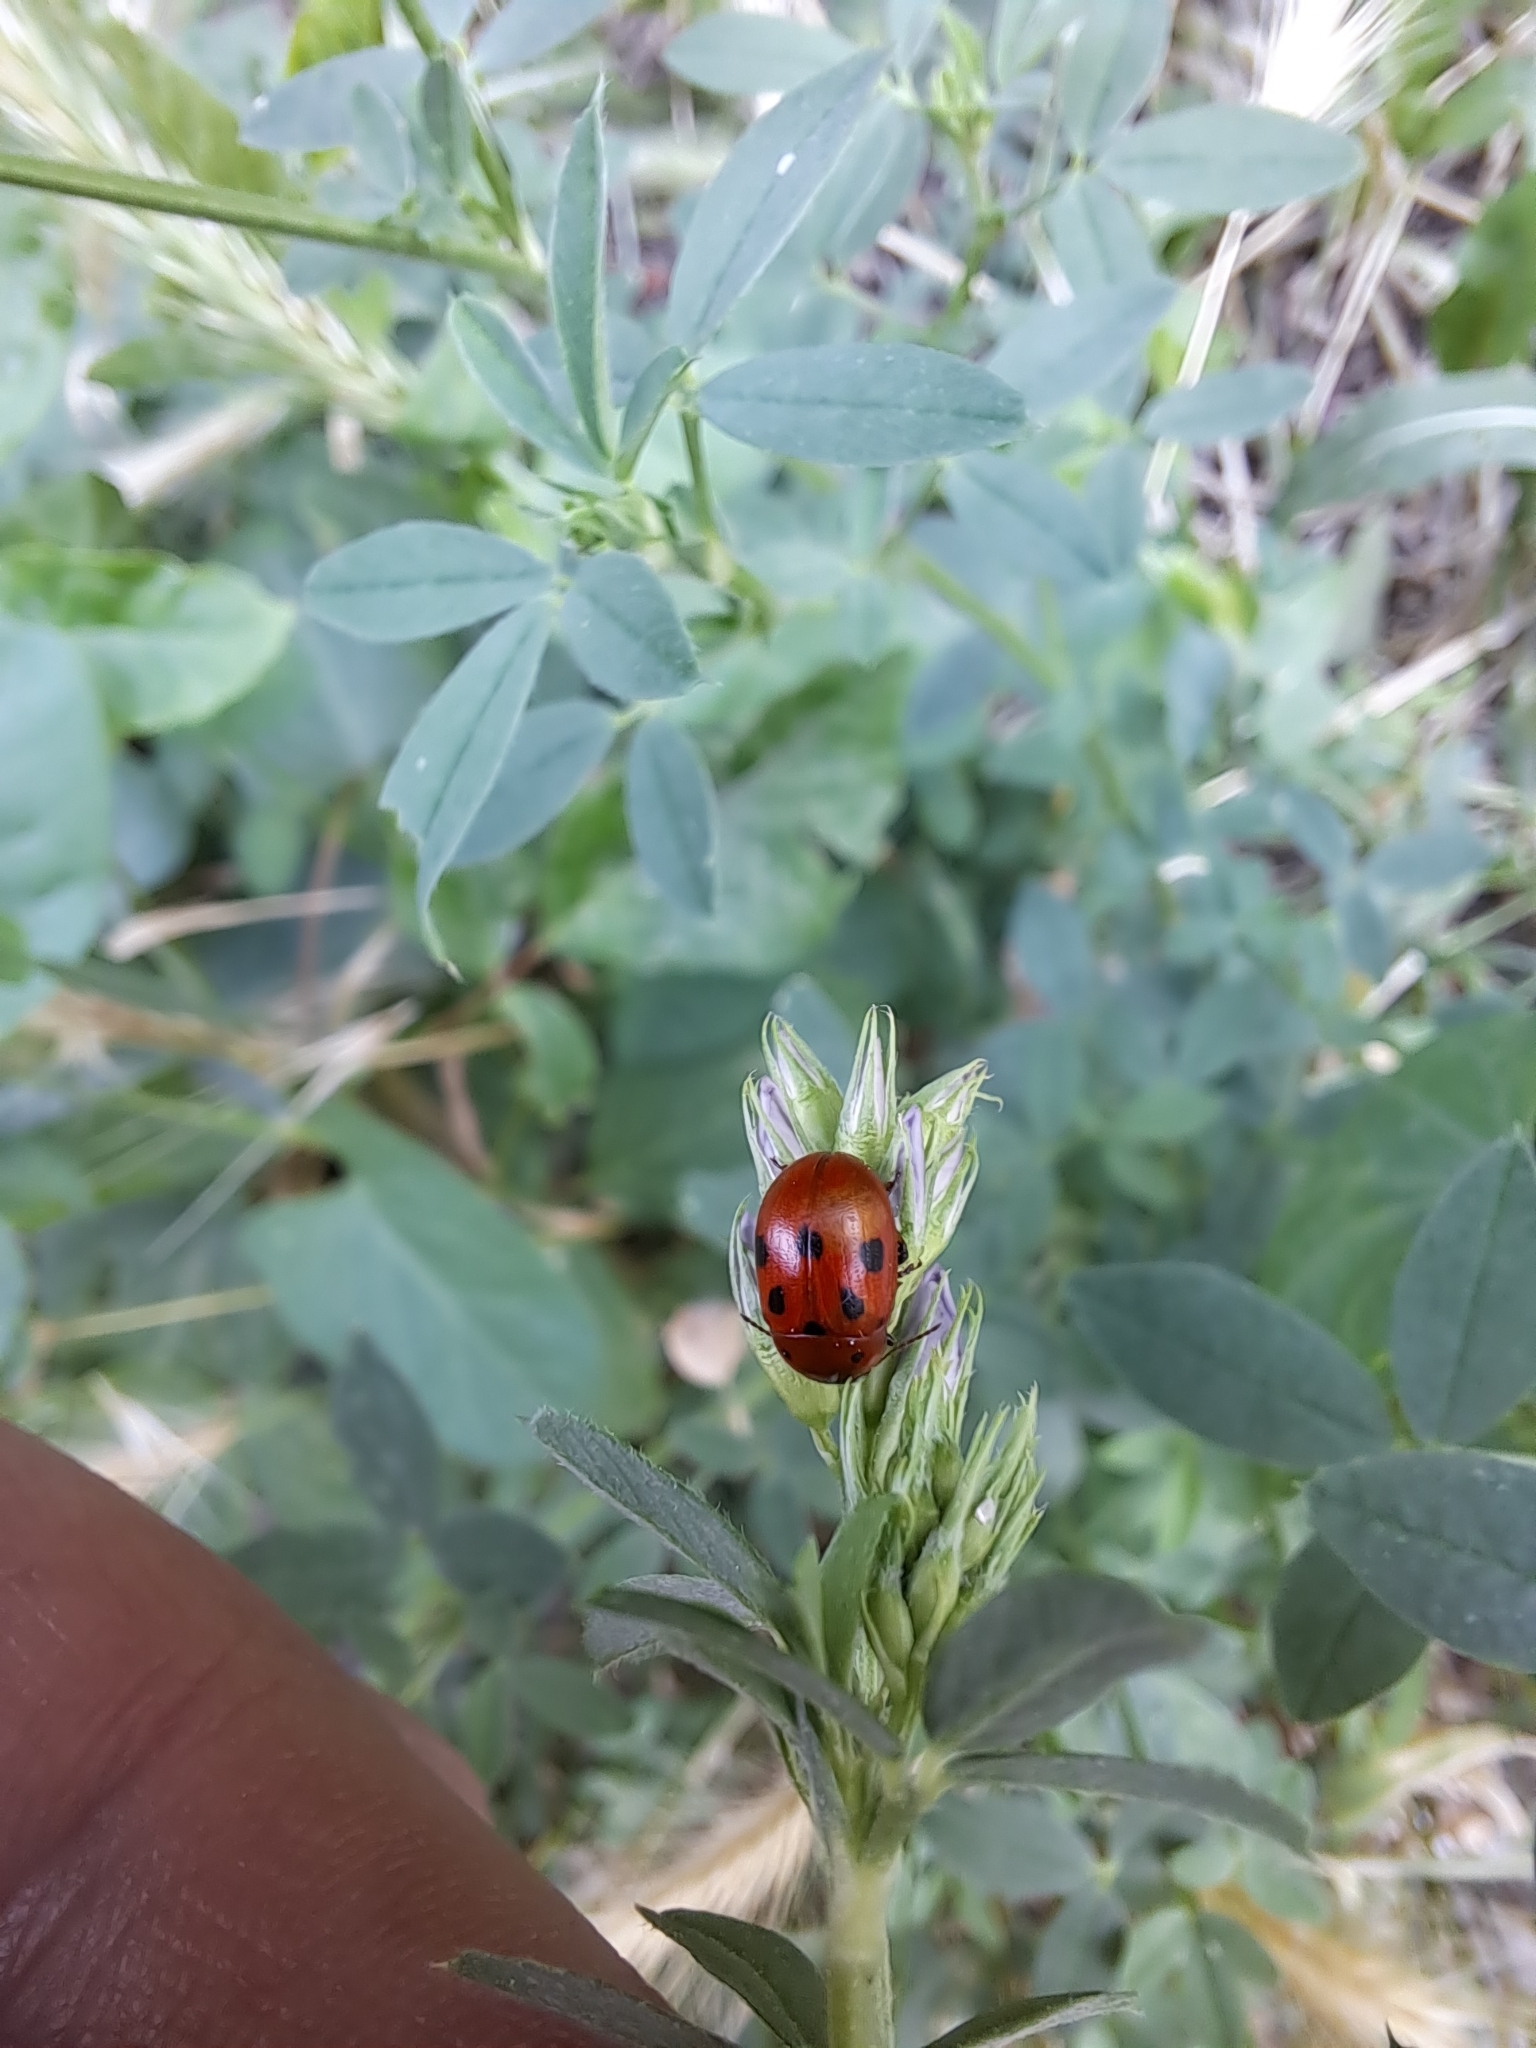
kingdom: Animalia
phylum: Arthropoda
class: Insecta
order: Coleoptera
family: Chrysomelidae
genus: Gonioctena
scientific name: Gonioctena fornicata
